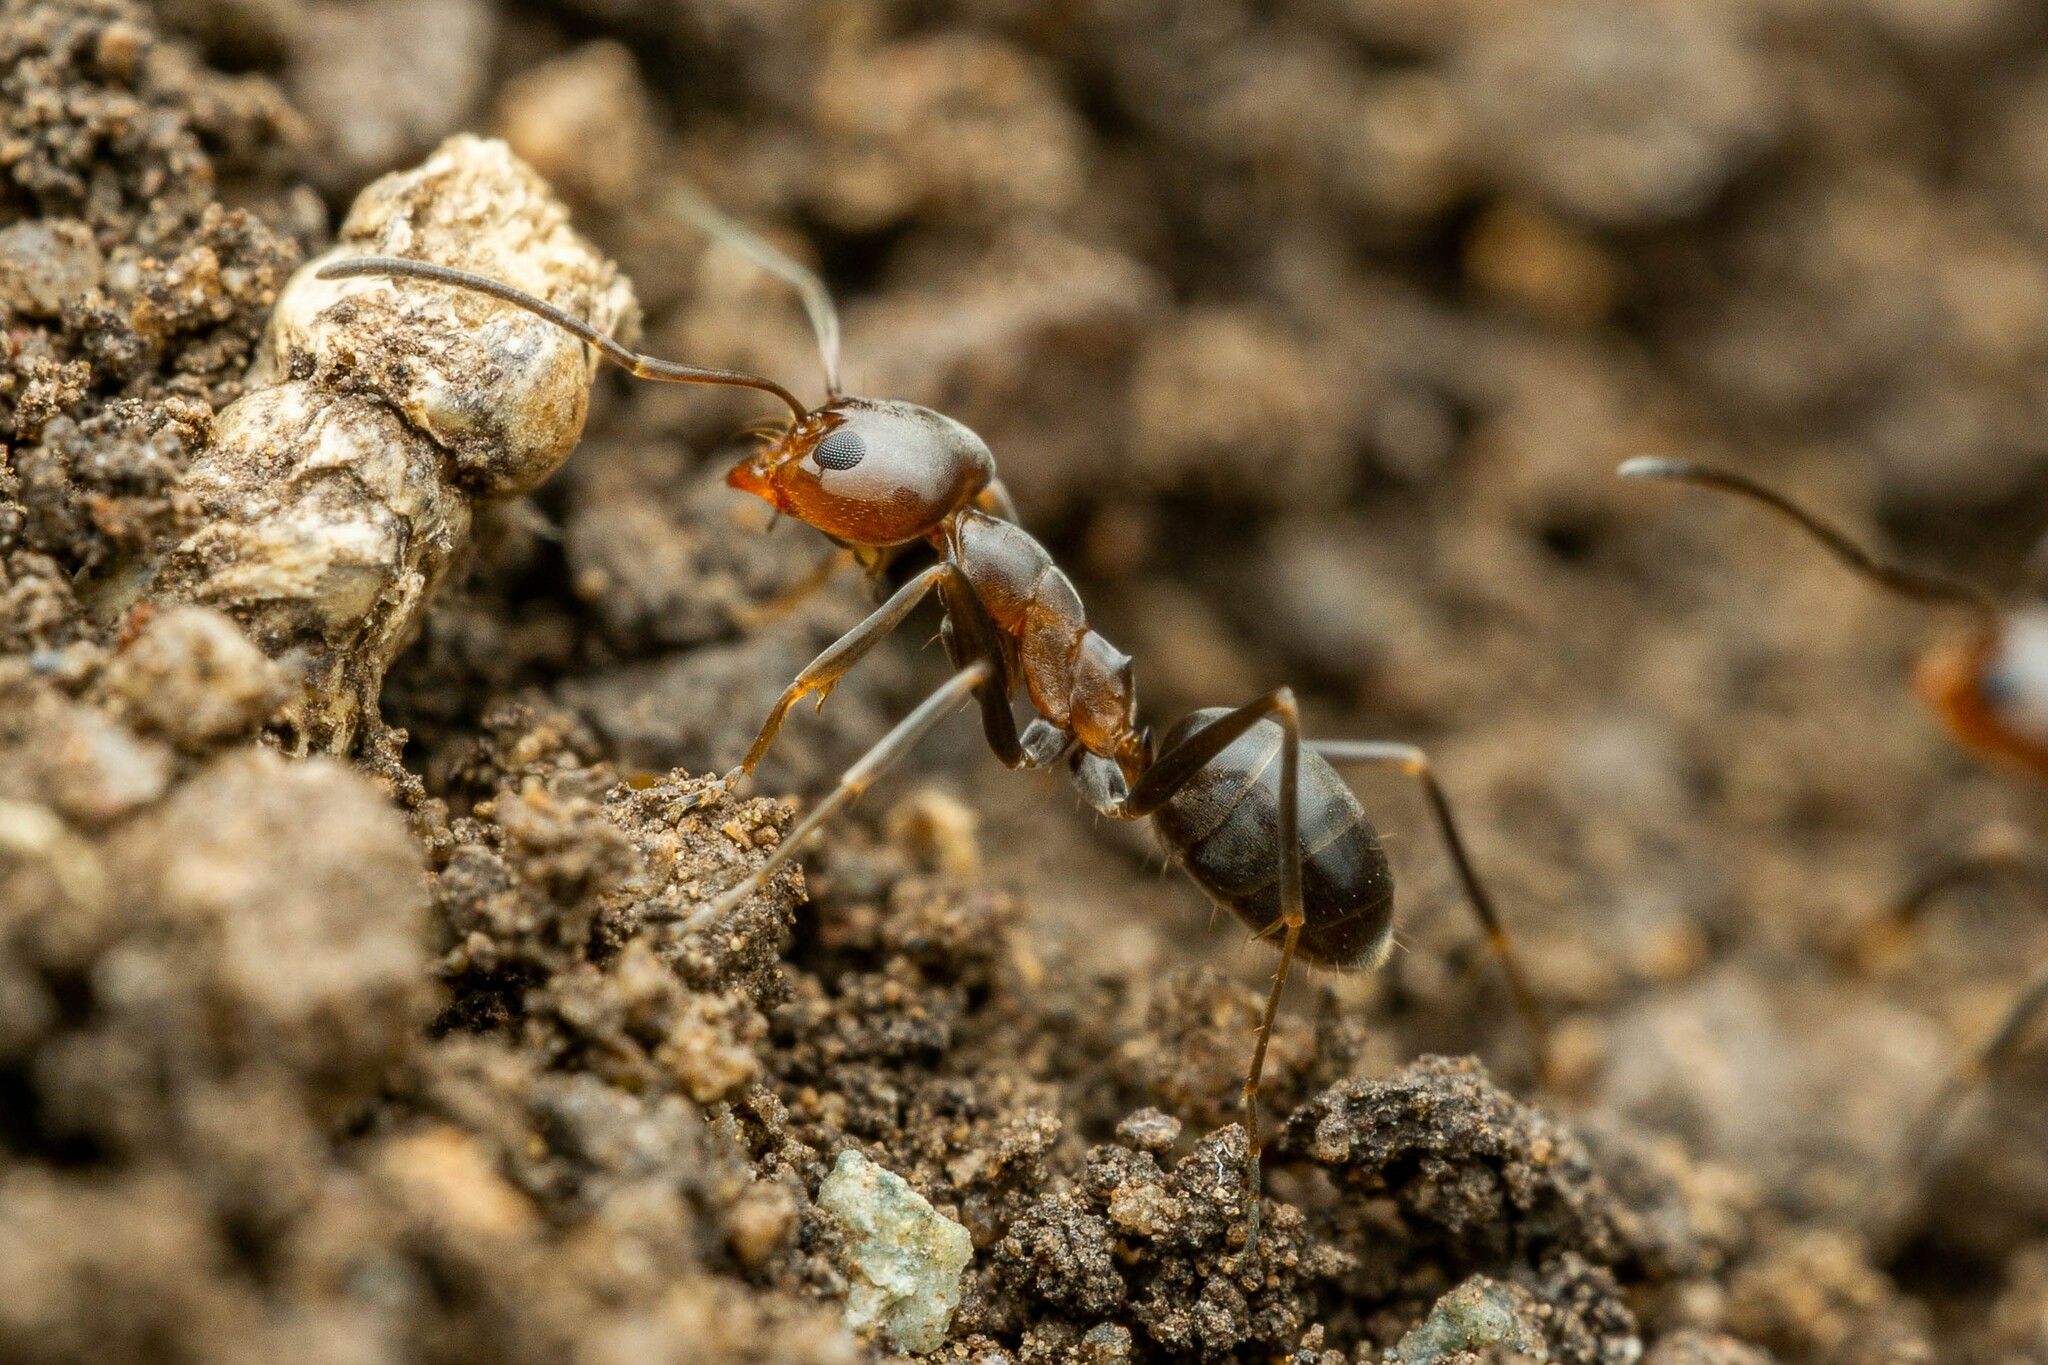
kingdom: Animalia
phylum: Arthropoda
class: Insecta
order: Hymenoptera
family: Formicidae
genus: Dorymyrmex
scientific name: Dorymyrmex
